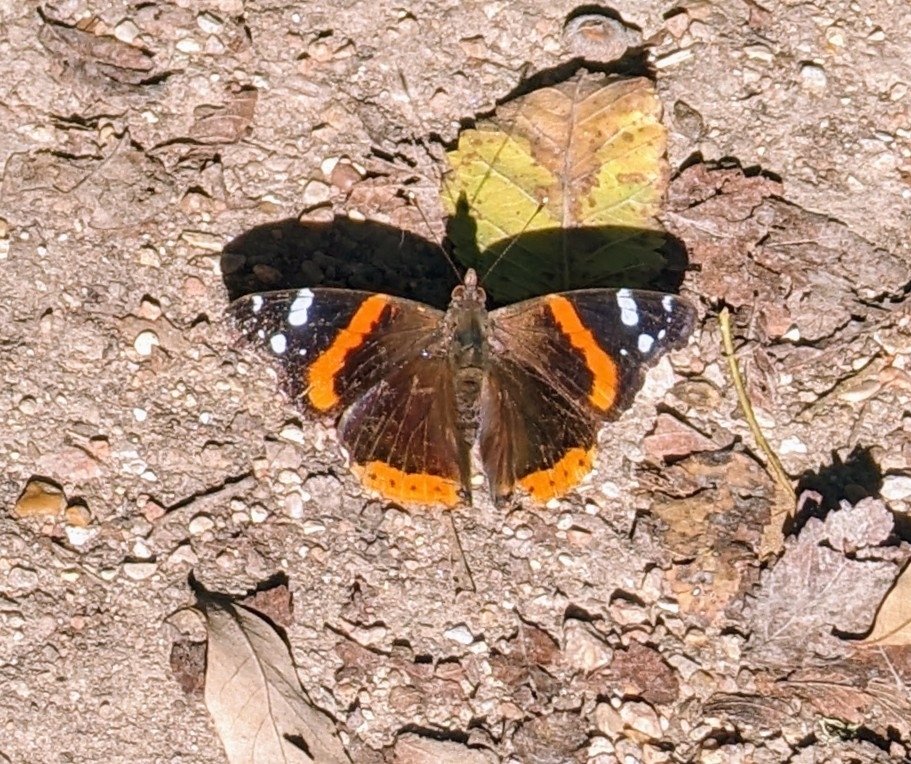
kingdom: Animalia
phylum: Arthropoda
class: Insecta
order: Lepidoptera
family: Nymphalidae
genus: Vanessa
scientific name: Vanessa atalanta
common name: Red admiral
